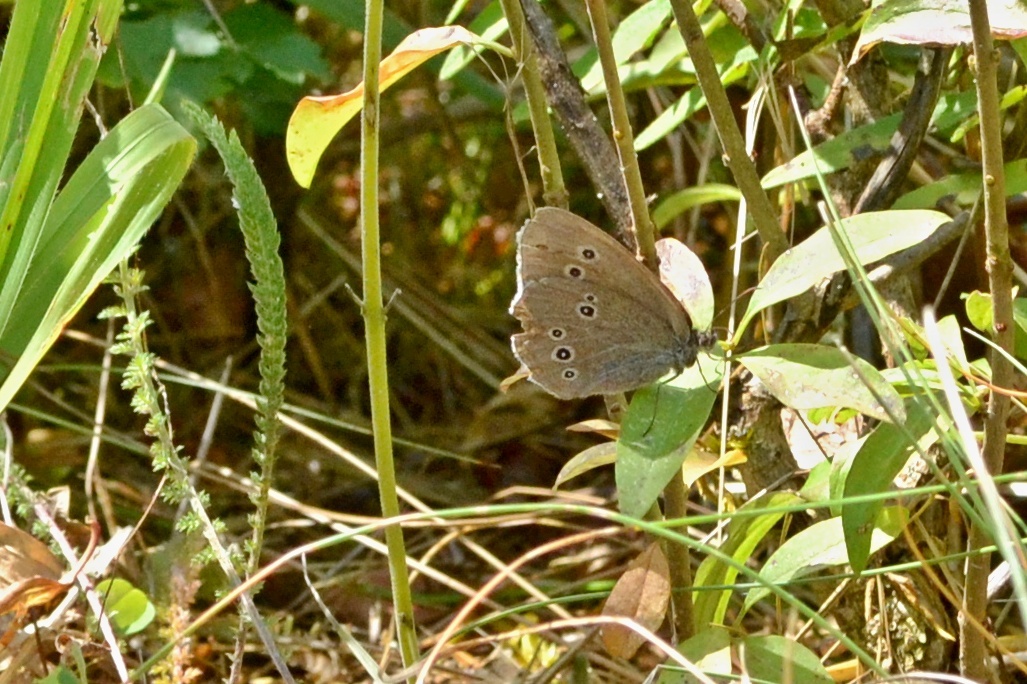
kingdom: Animalia
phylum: Arthropoda
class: Insecta
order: Lepidoptera
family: Nymphalidae
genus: Aphantopus
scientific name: Aphantopus hyperantus
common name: Ringlet
